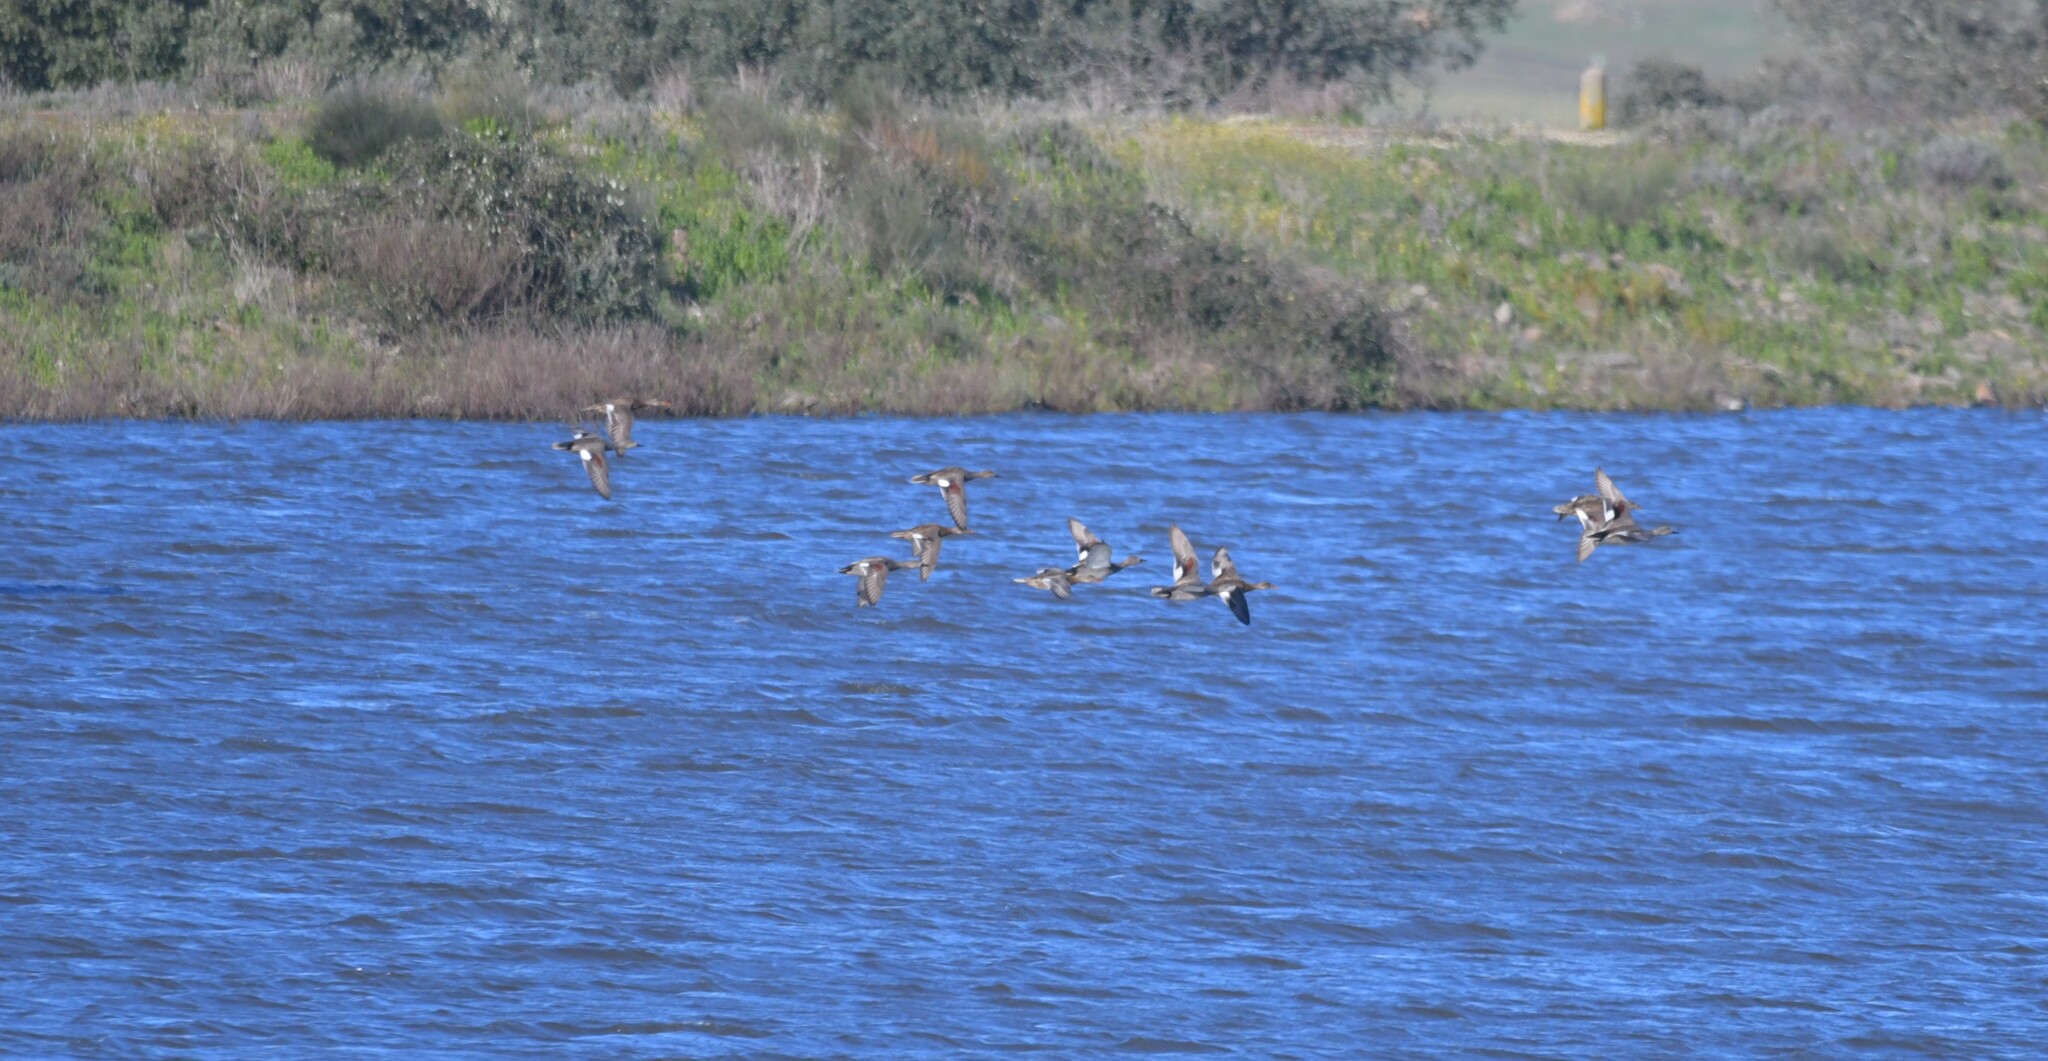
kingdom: Animalia
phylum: Chordata
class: Aves
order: Anseriformes
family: Anatidae
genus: Mareca
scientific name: Mareca strepera
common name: Gadwall
